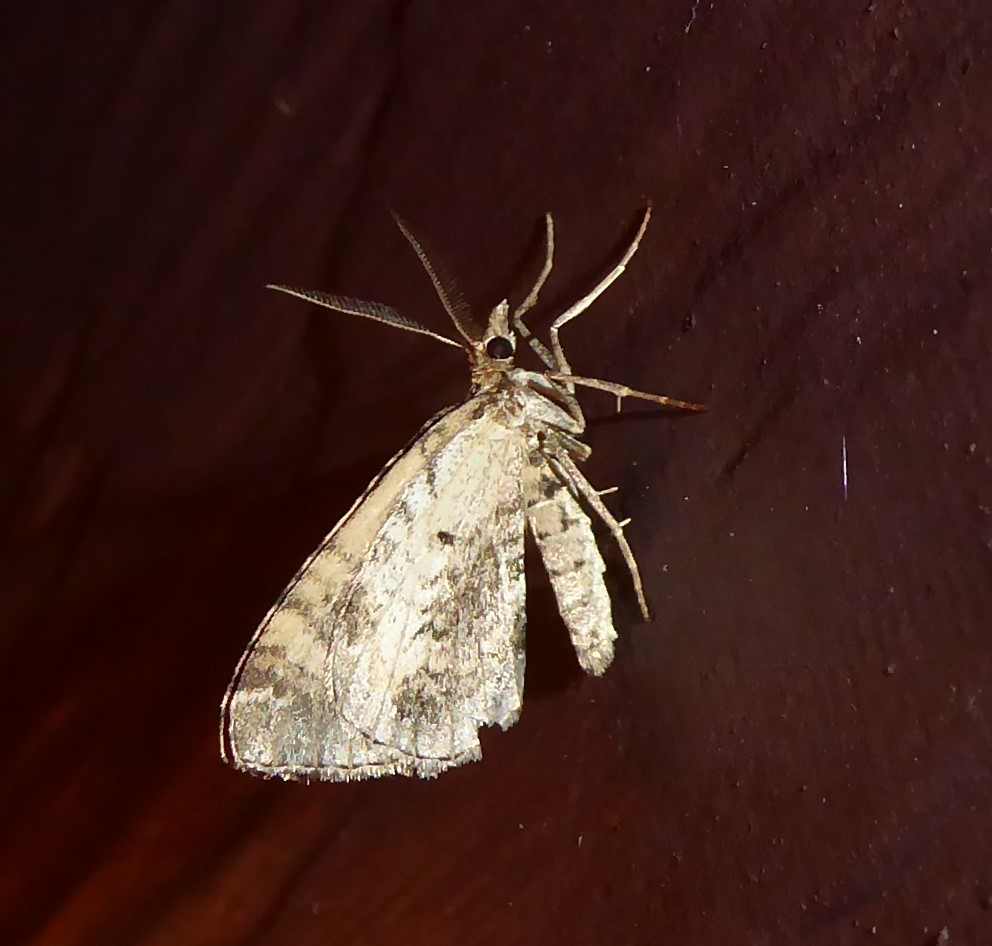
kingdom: Animalia
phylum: Arthropoda
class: Insecta
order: Lepidoptera
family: Geometridae
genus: Asaphodes
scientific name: Asaphodes aegrota
